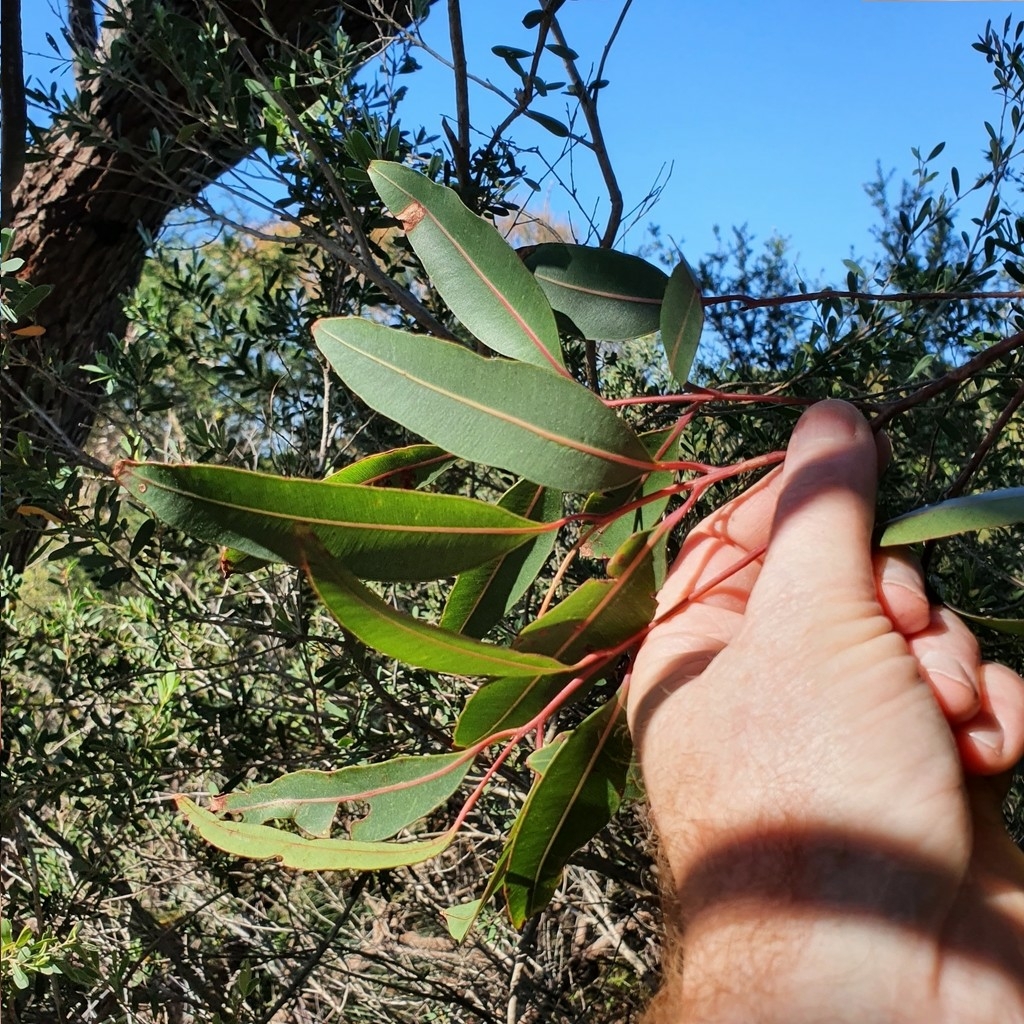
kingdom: Plantae
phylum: Tracheophyta
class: Magnoliopsida
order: Myrtales
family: Myrtaceae
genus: Corymbia
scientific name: Corymbia gummifera
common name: Red bloodwood
